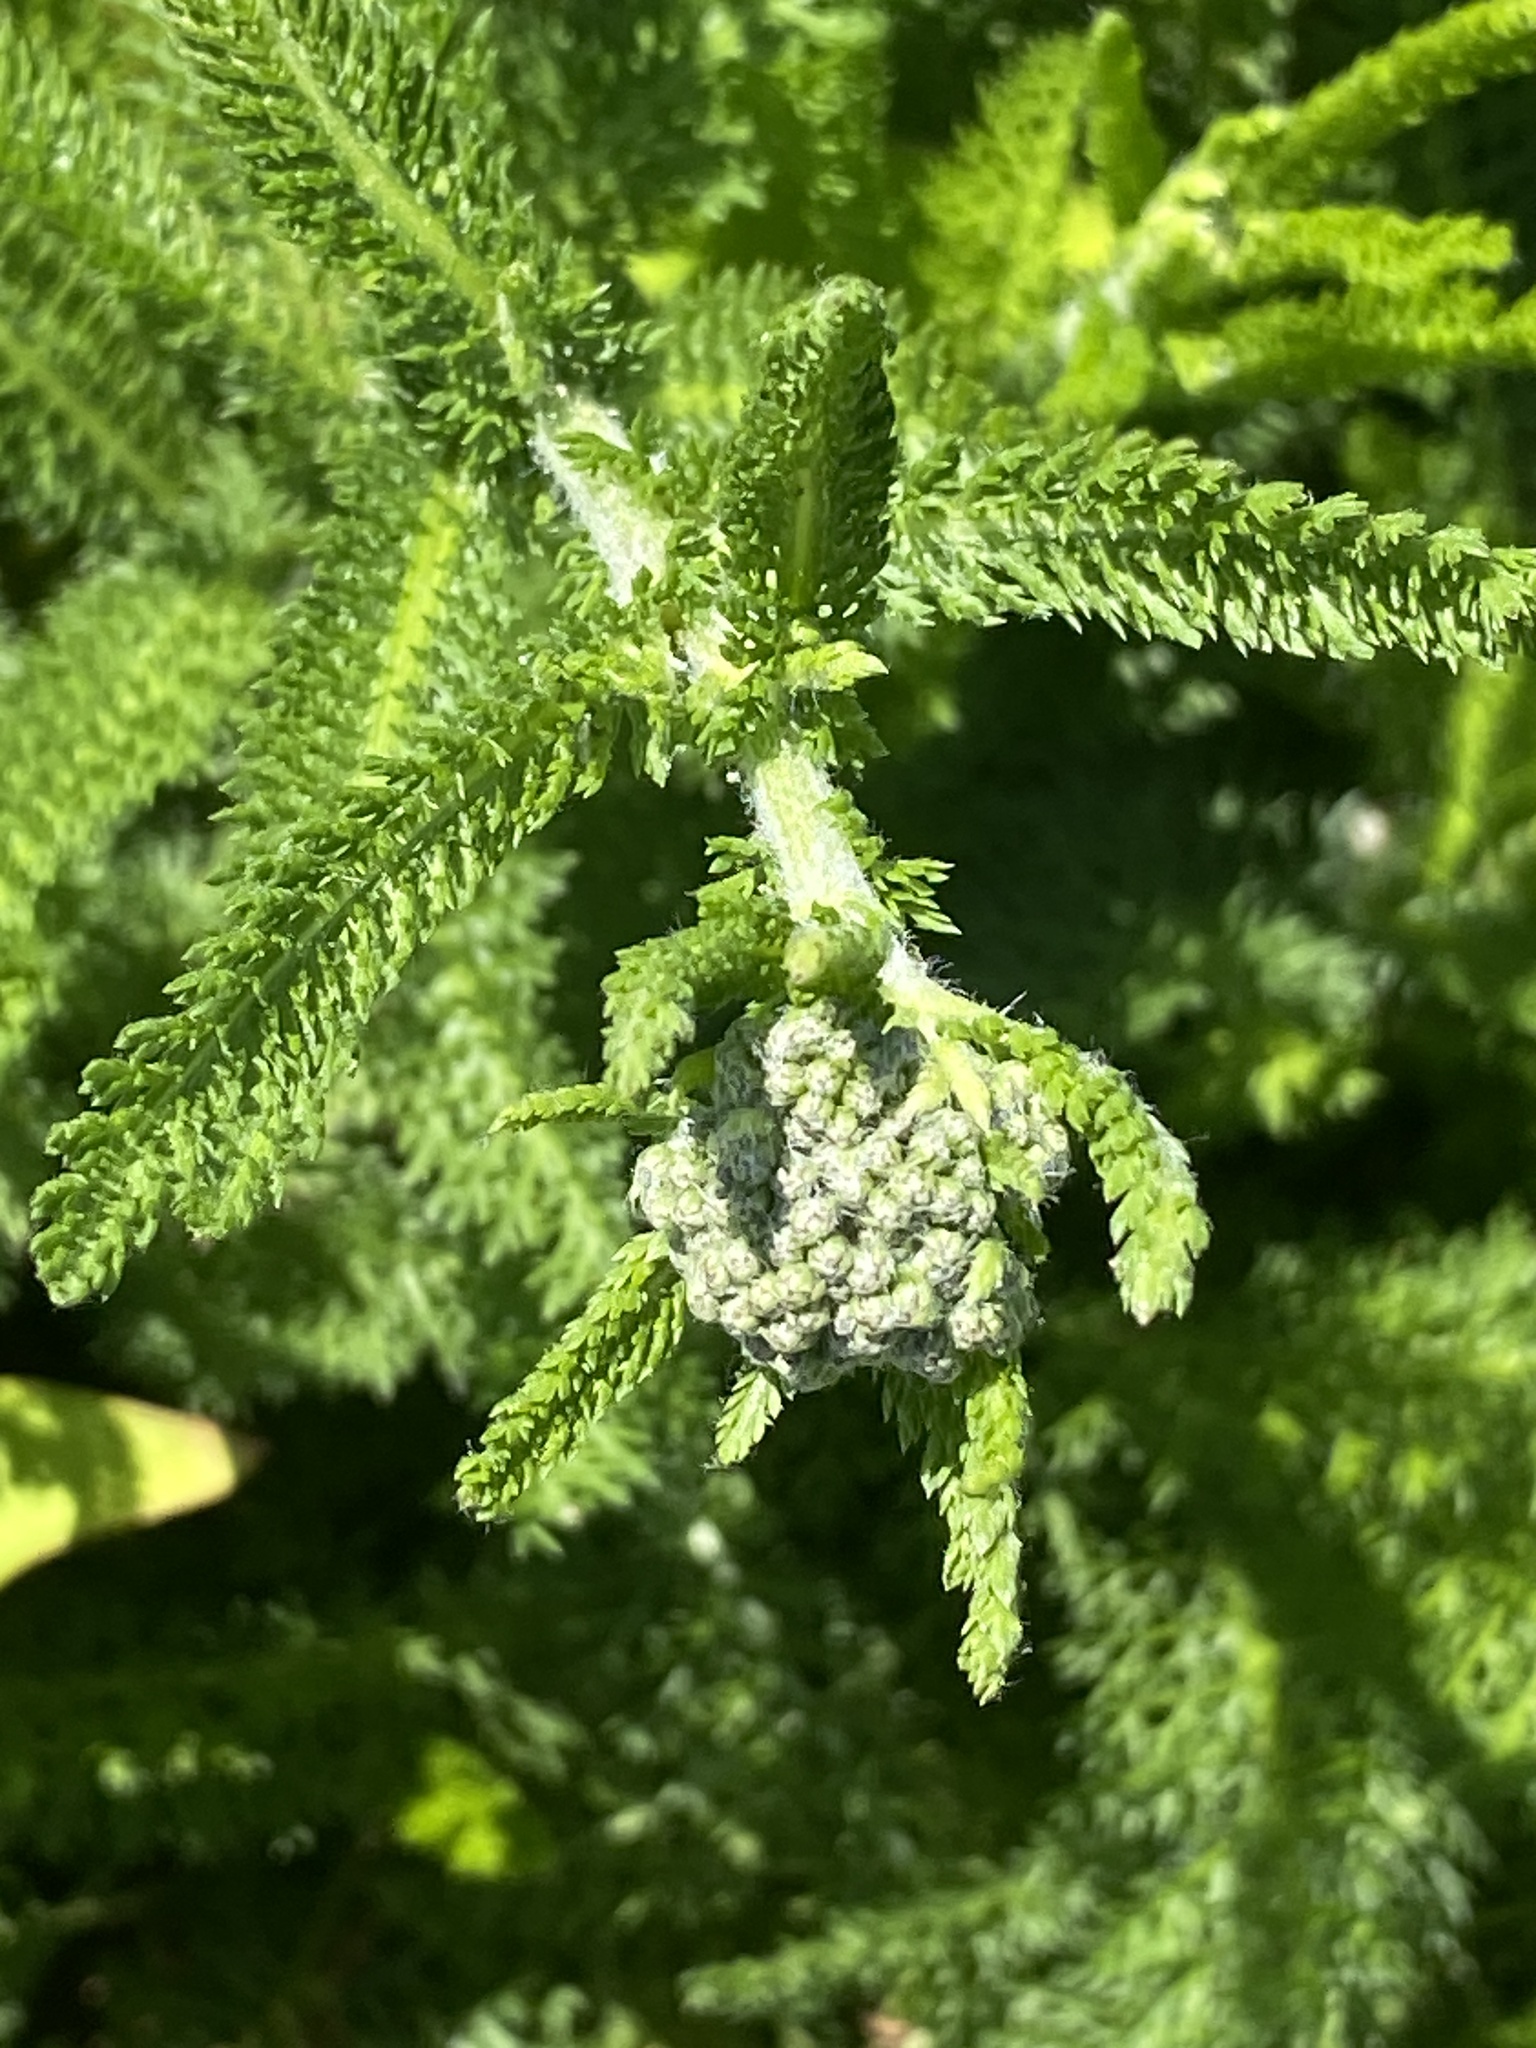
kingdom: Plantae
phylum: Tracheophyta
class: Magnoliopsida
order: Asterales
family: Asteraceae
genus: Achillea
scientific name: Achillea millefolium
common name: Yarrow
